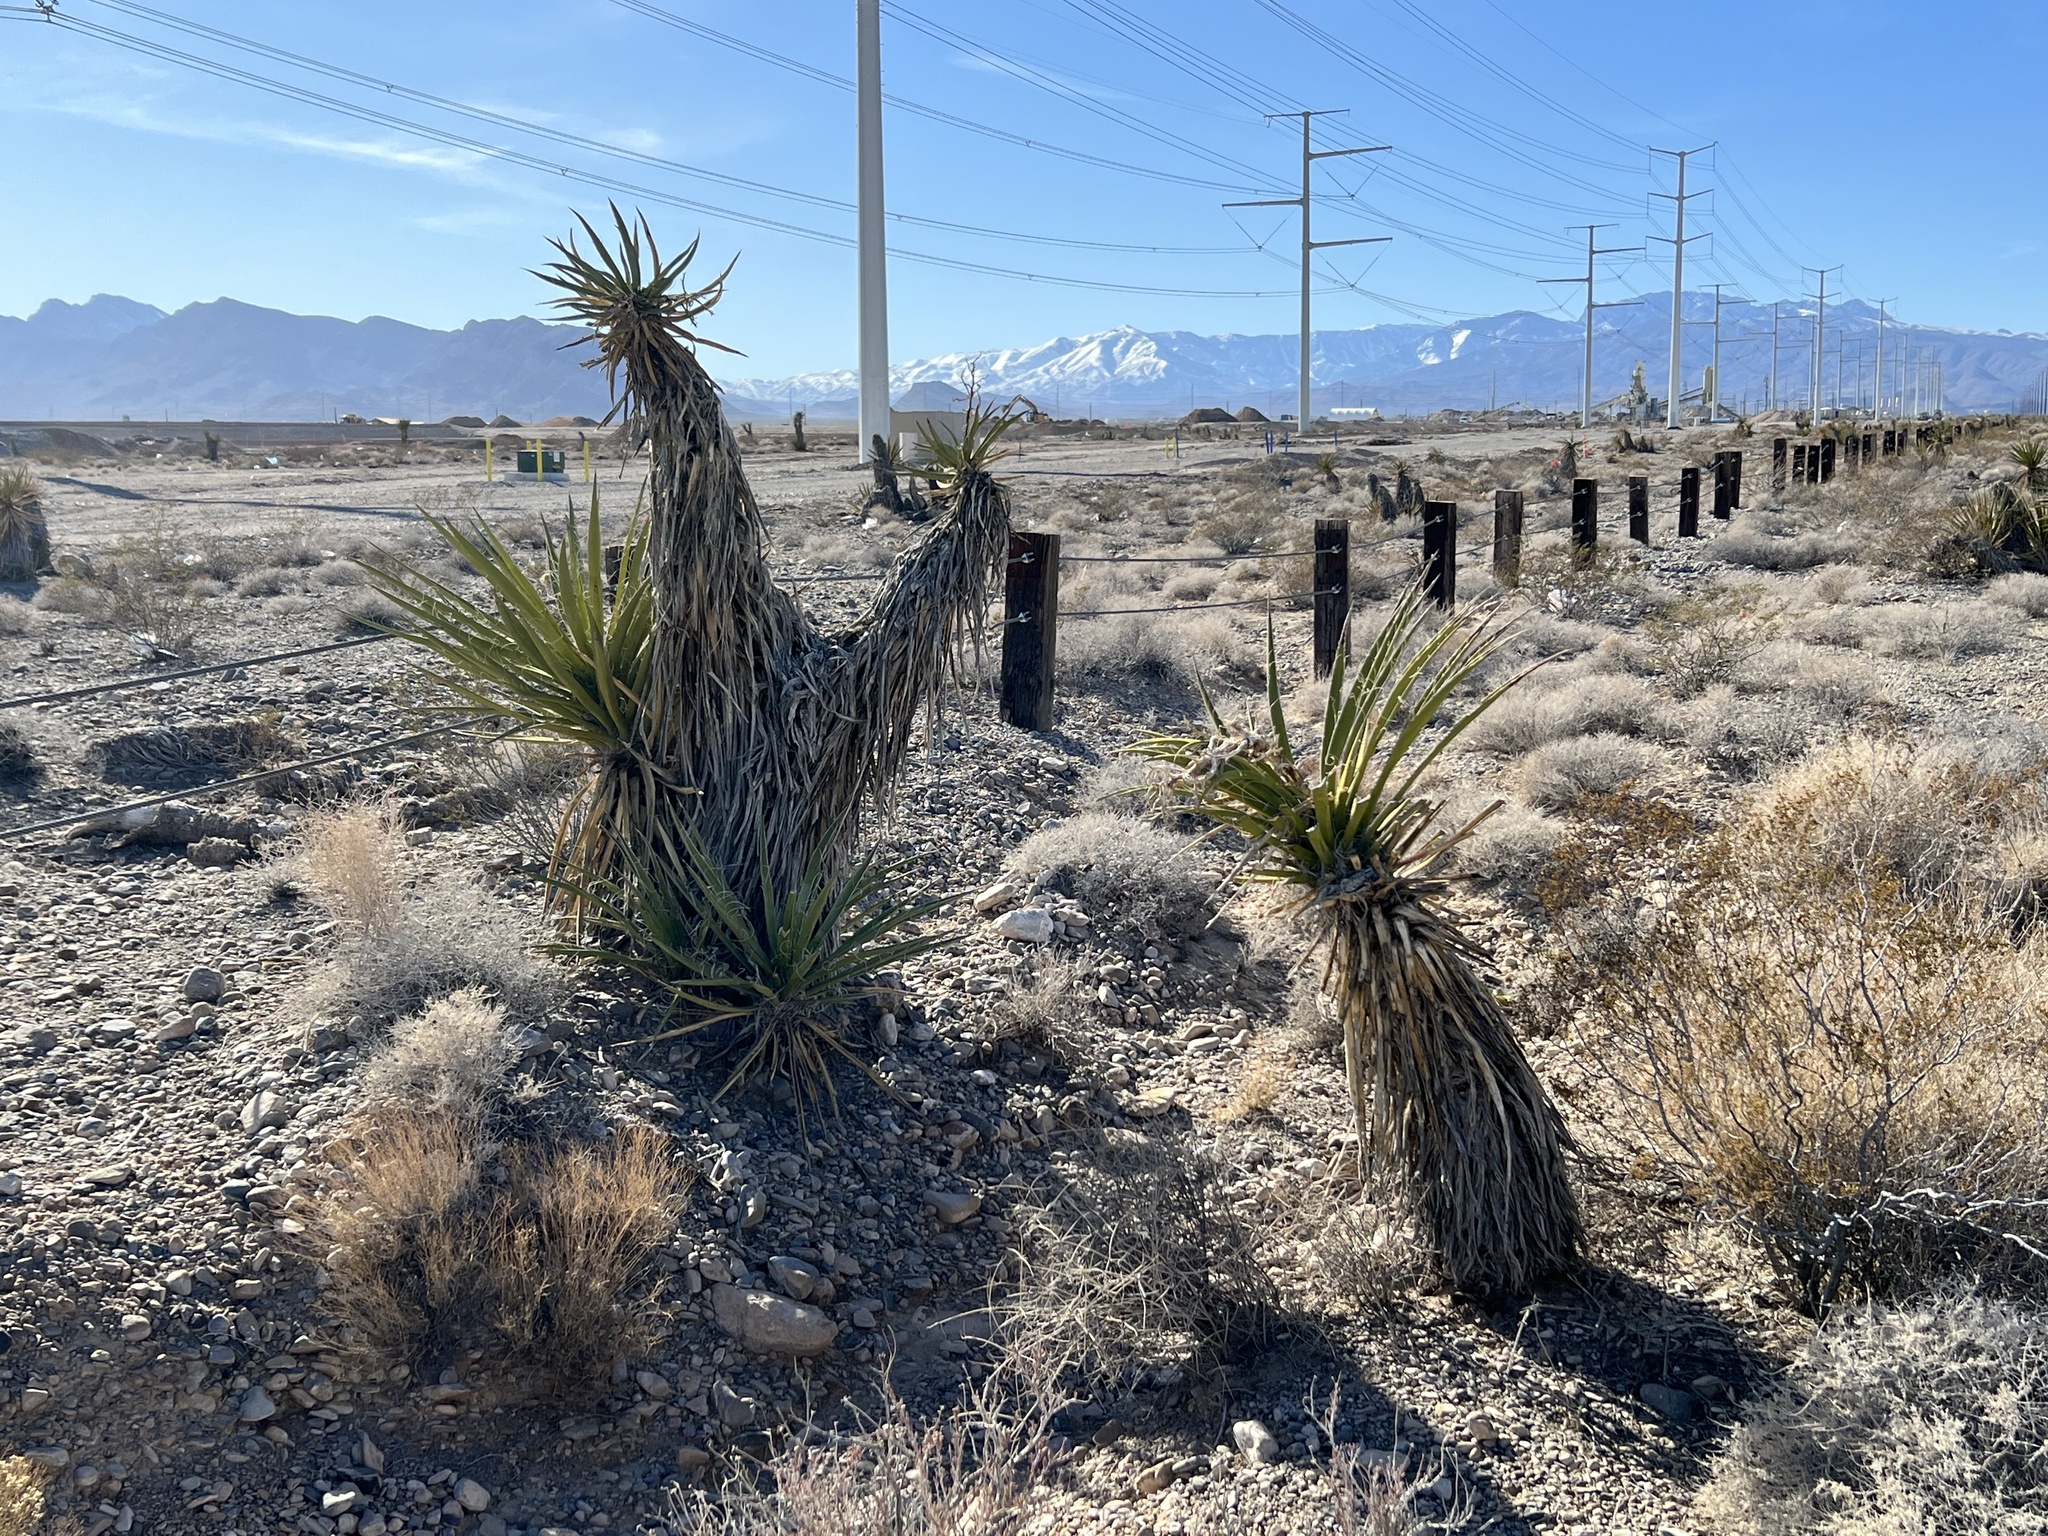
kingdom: Plantae
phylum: Tracheophyta
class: Liliopsida
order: Asparagales
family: Asparagaceae
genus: Yucca
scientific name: Yucca schidigera
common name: Mojave yucca
